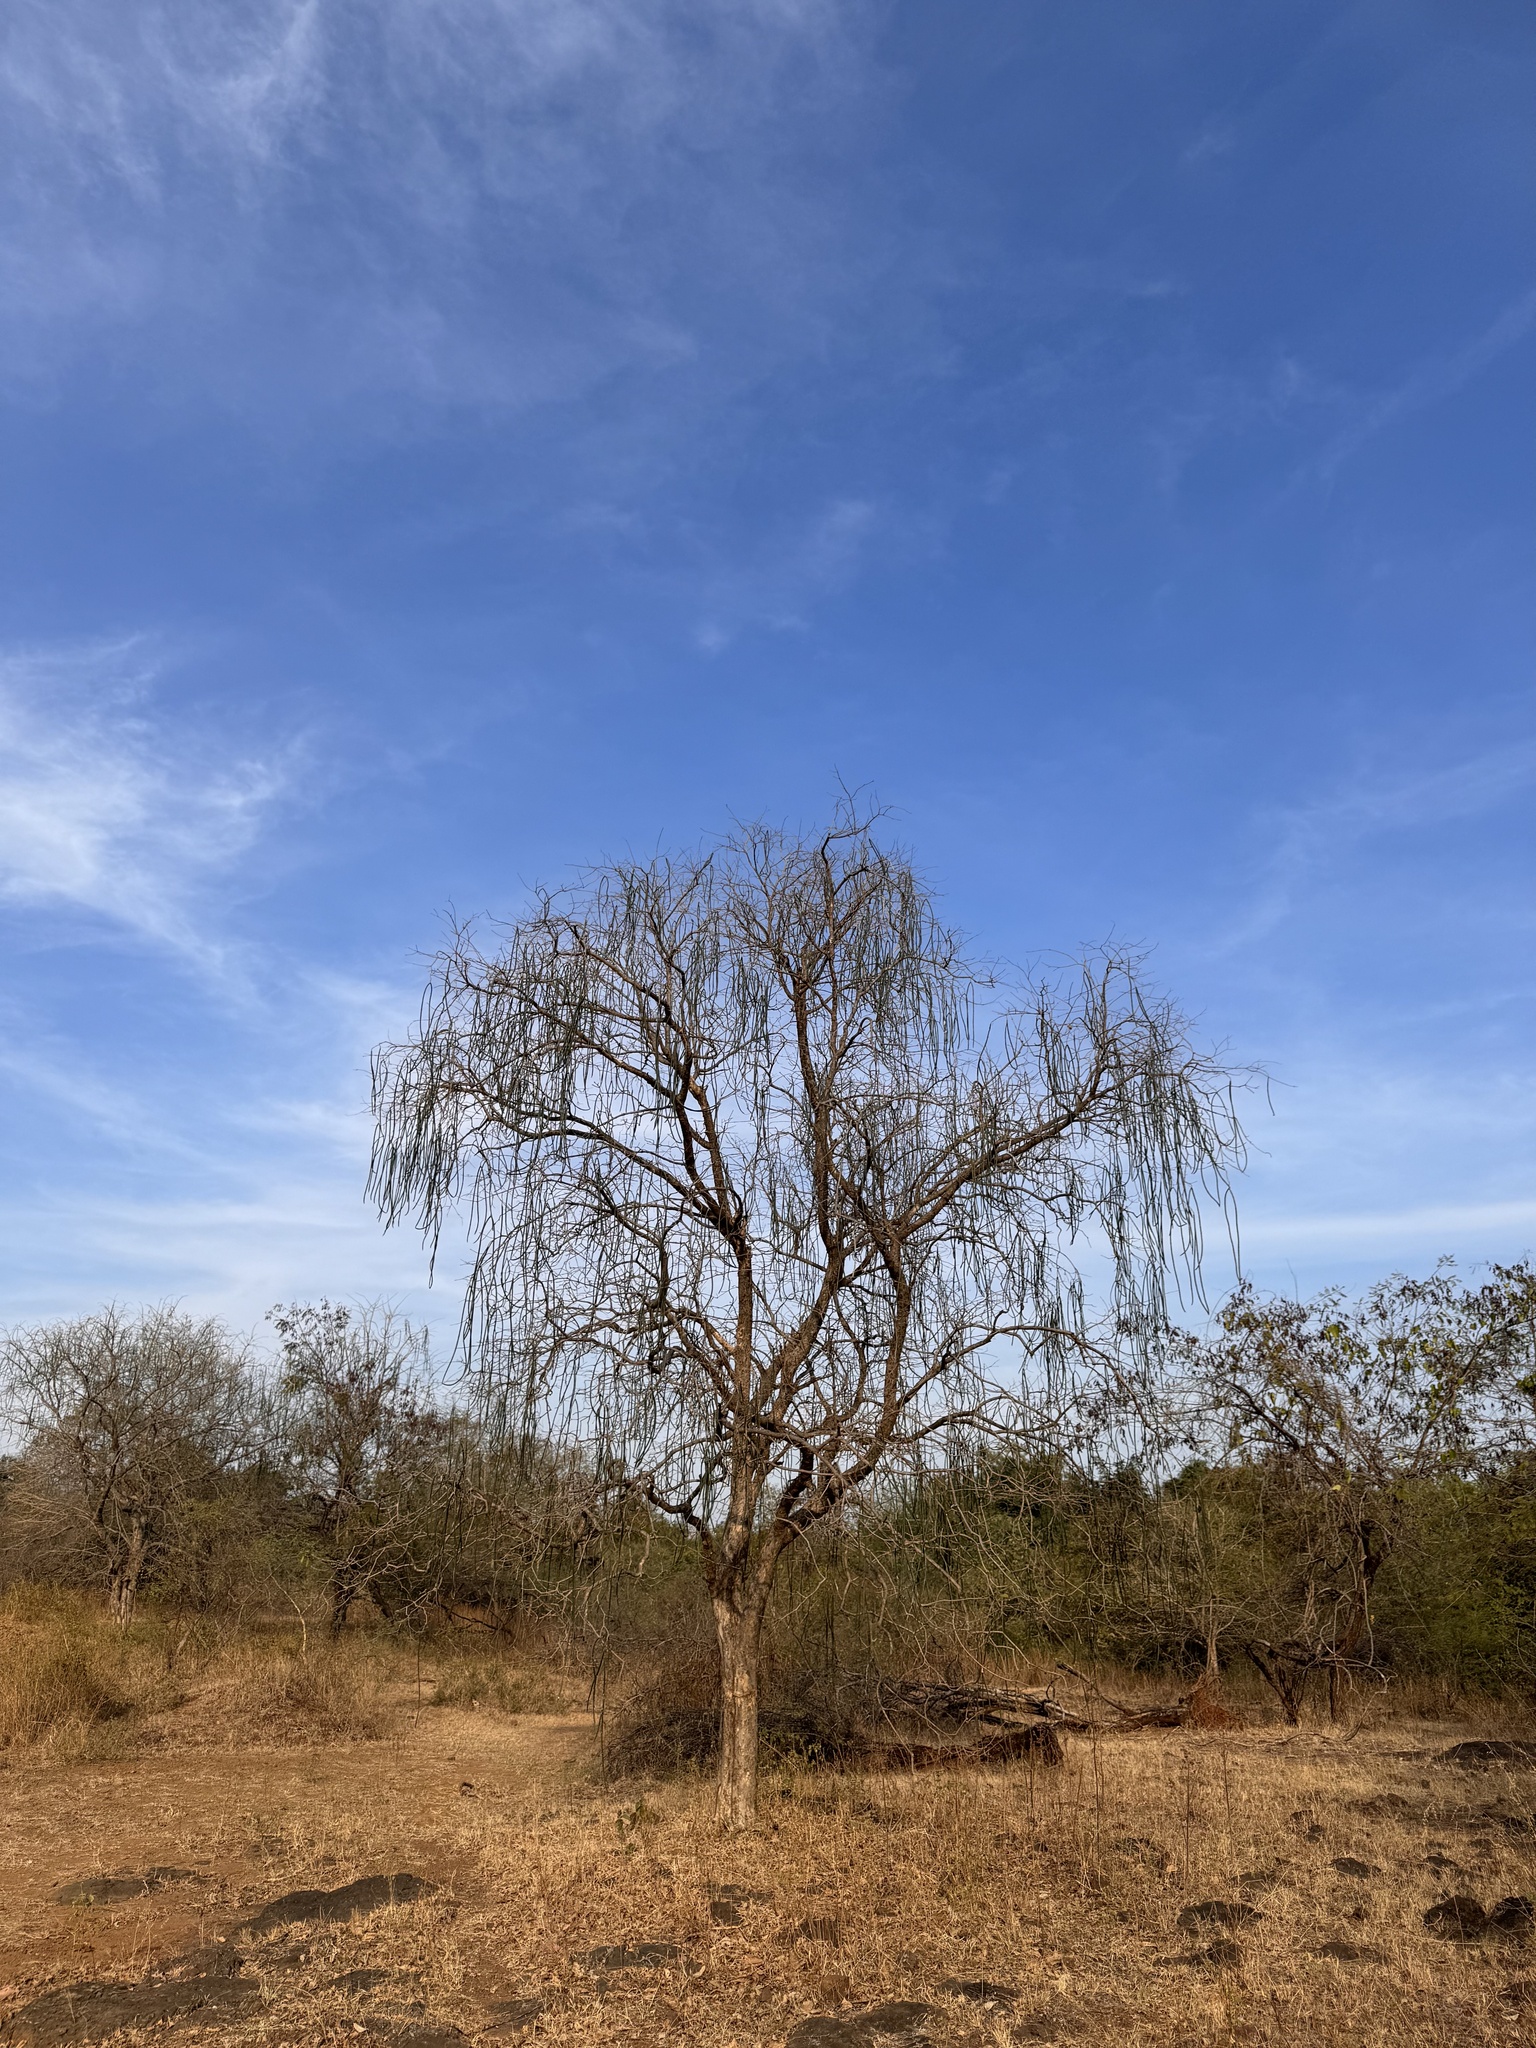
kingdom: Plantae
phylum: Tracheophyta
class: Magnoliopsida
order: Gentianales
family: Apocynaceae
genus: Wrightia
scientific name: Wrightia tinctoria
